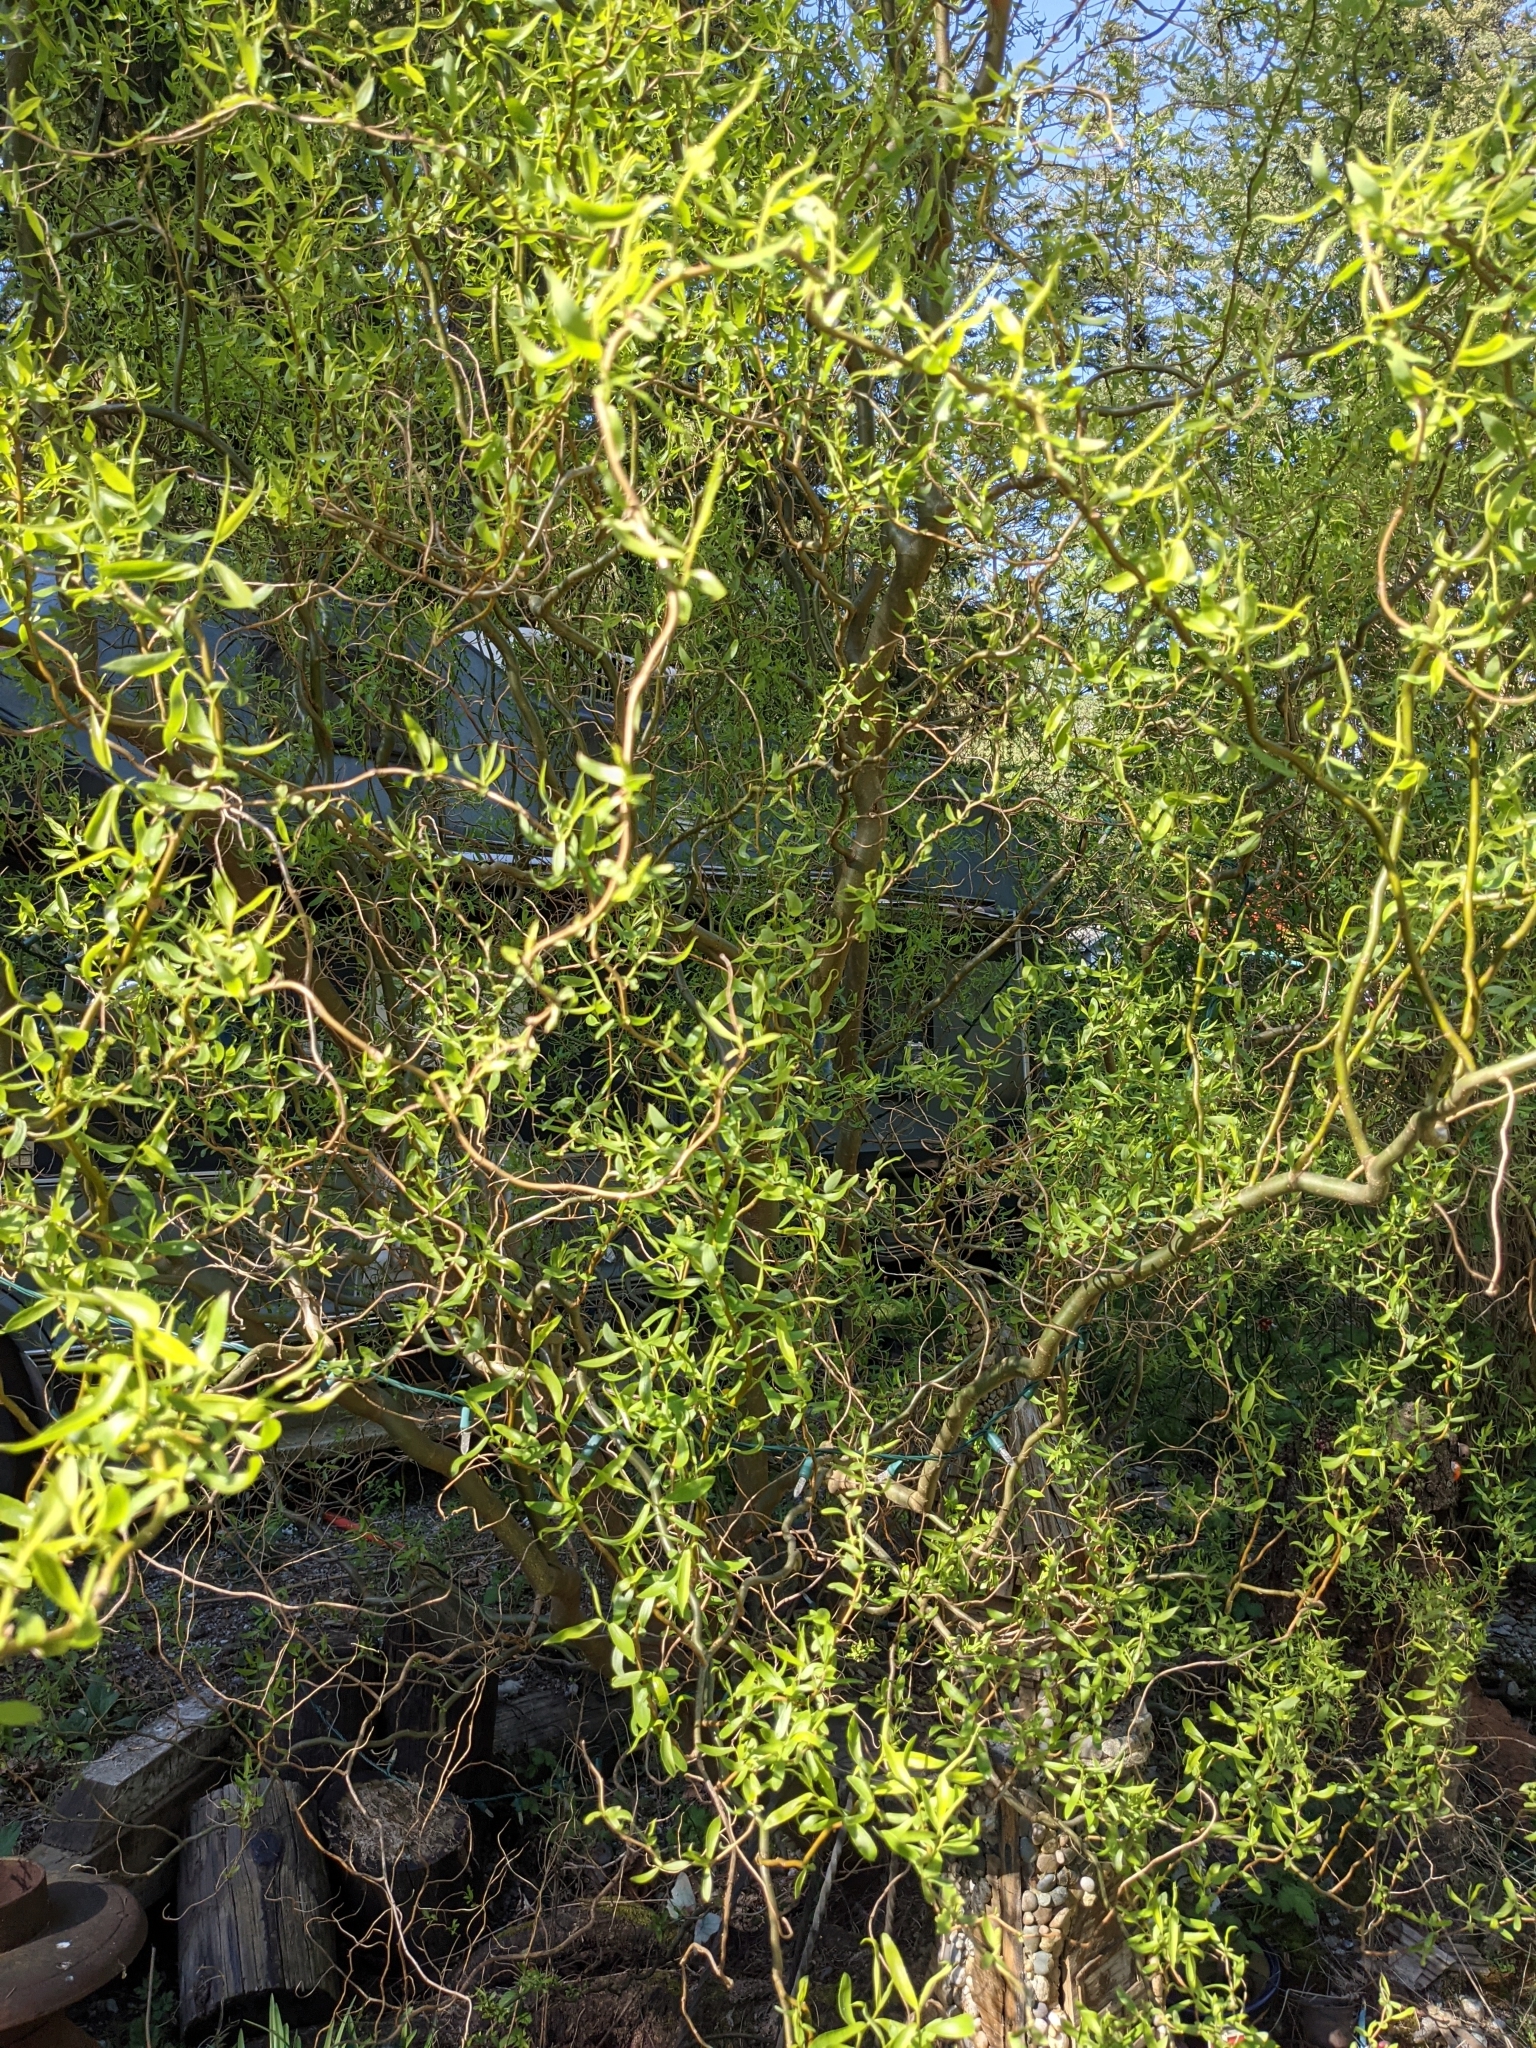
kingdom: Plantae
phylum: Tracheophyta
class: Magnoliopsida
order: Malpighiales
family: Salicaceae
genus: Salix
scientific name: Salix pendulina
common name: Wisconsin weeping willow
